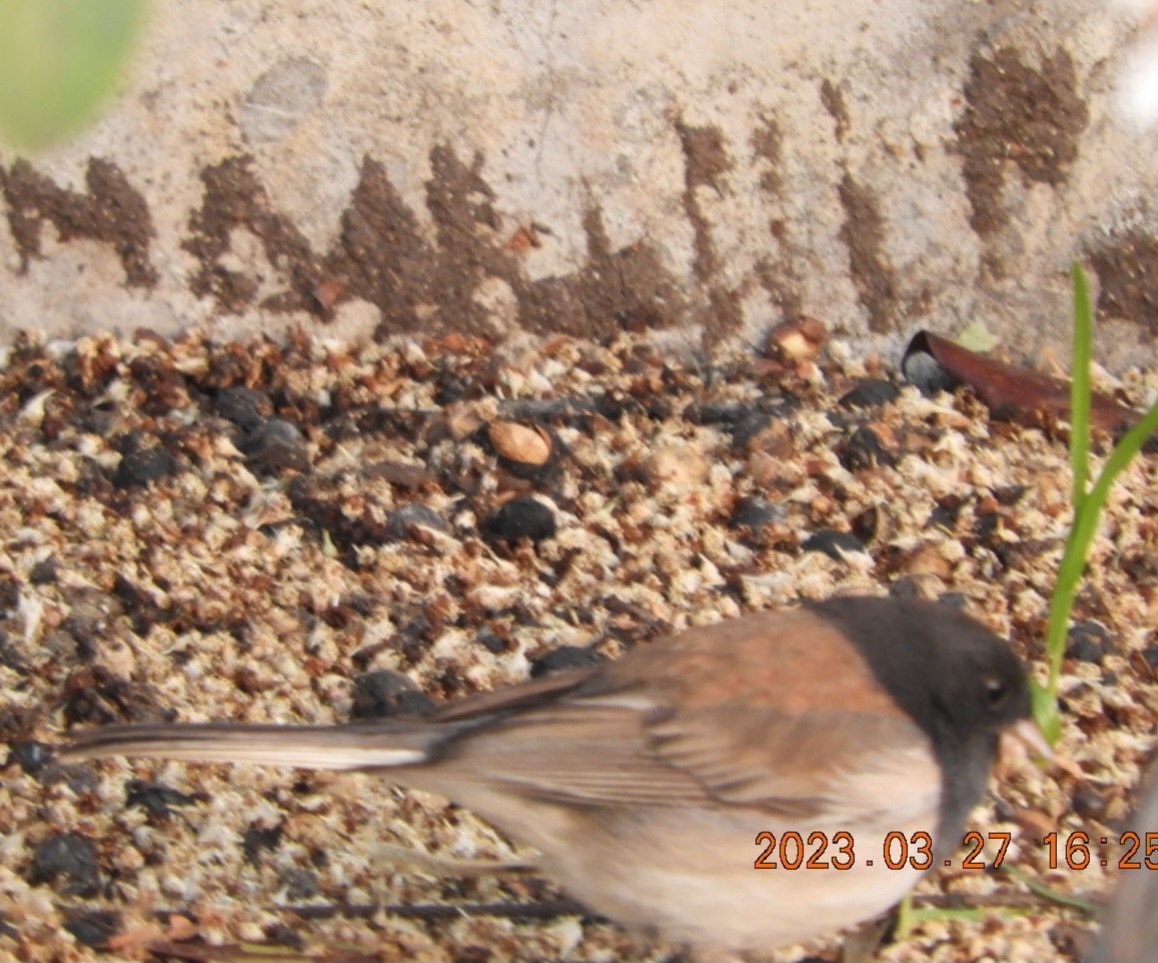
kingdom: Animalia
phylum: Chordata
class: Aves
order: Passeriformes
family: Passerellidae
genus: Junco
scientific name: Junco hyemalis
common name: Dark-eyed junco
